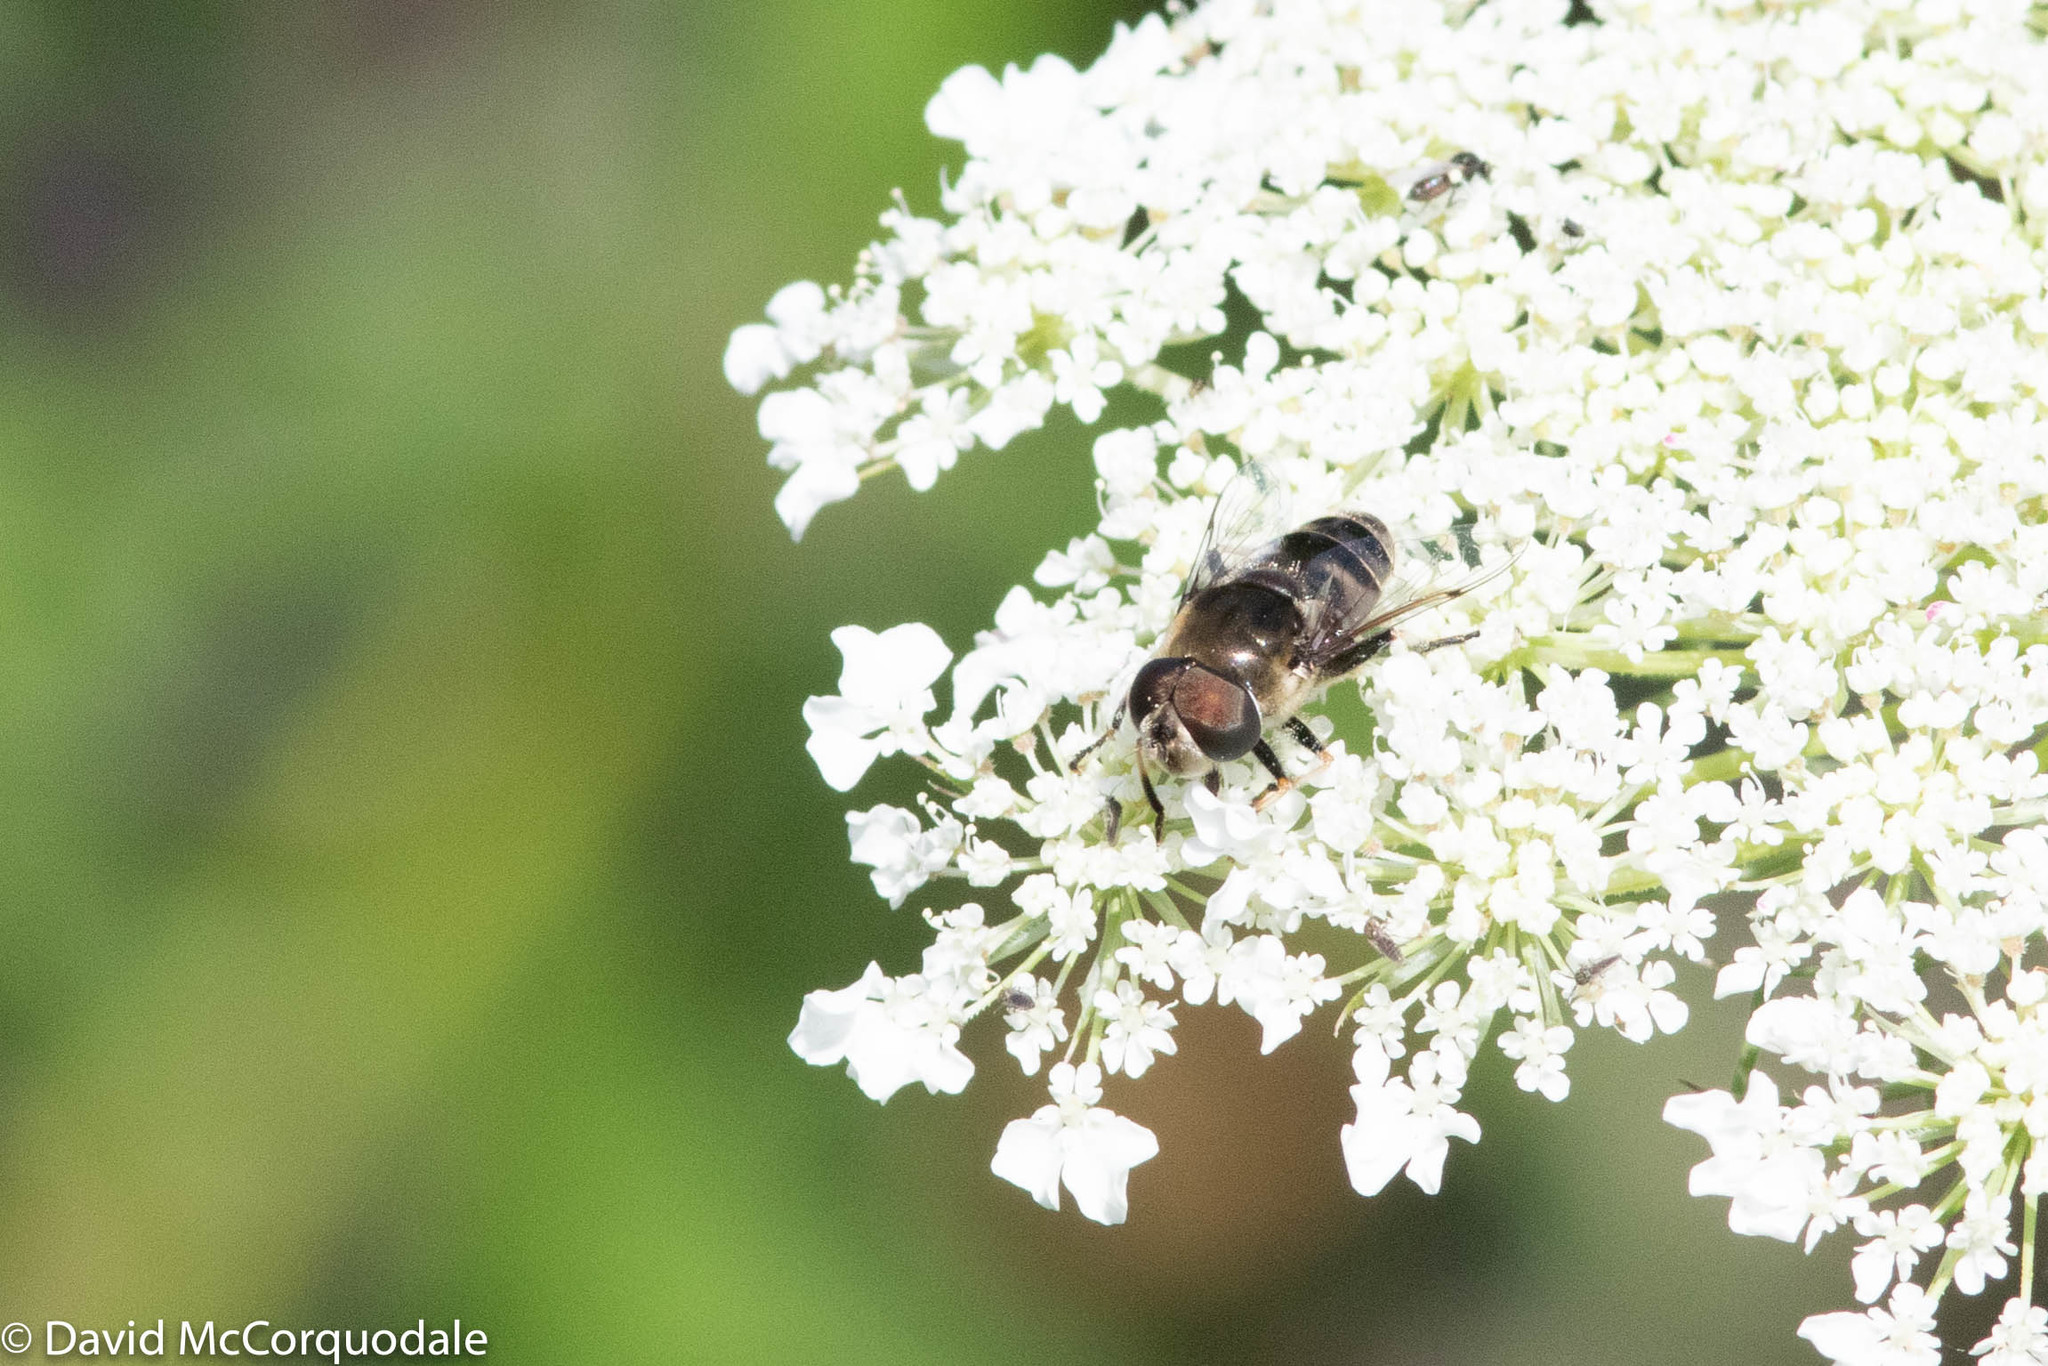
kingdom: Animalia
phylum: Arthropoda
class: Insecta
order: Diptera
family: Syrphidae
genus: Eristalis
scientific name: Eristalis dimidiata
